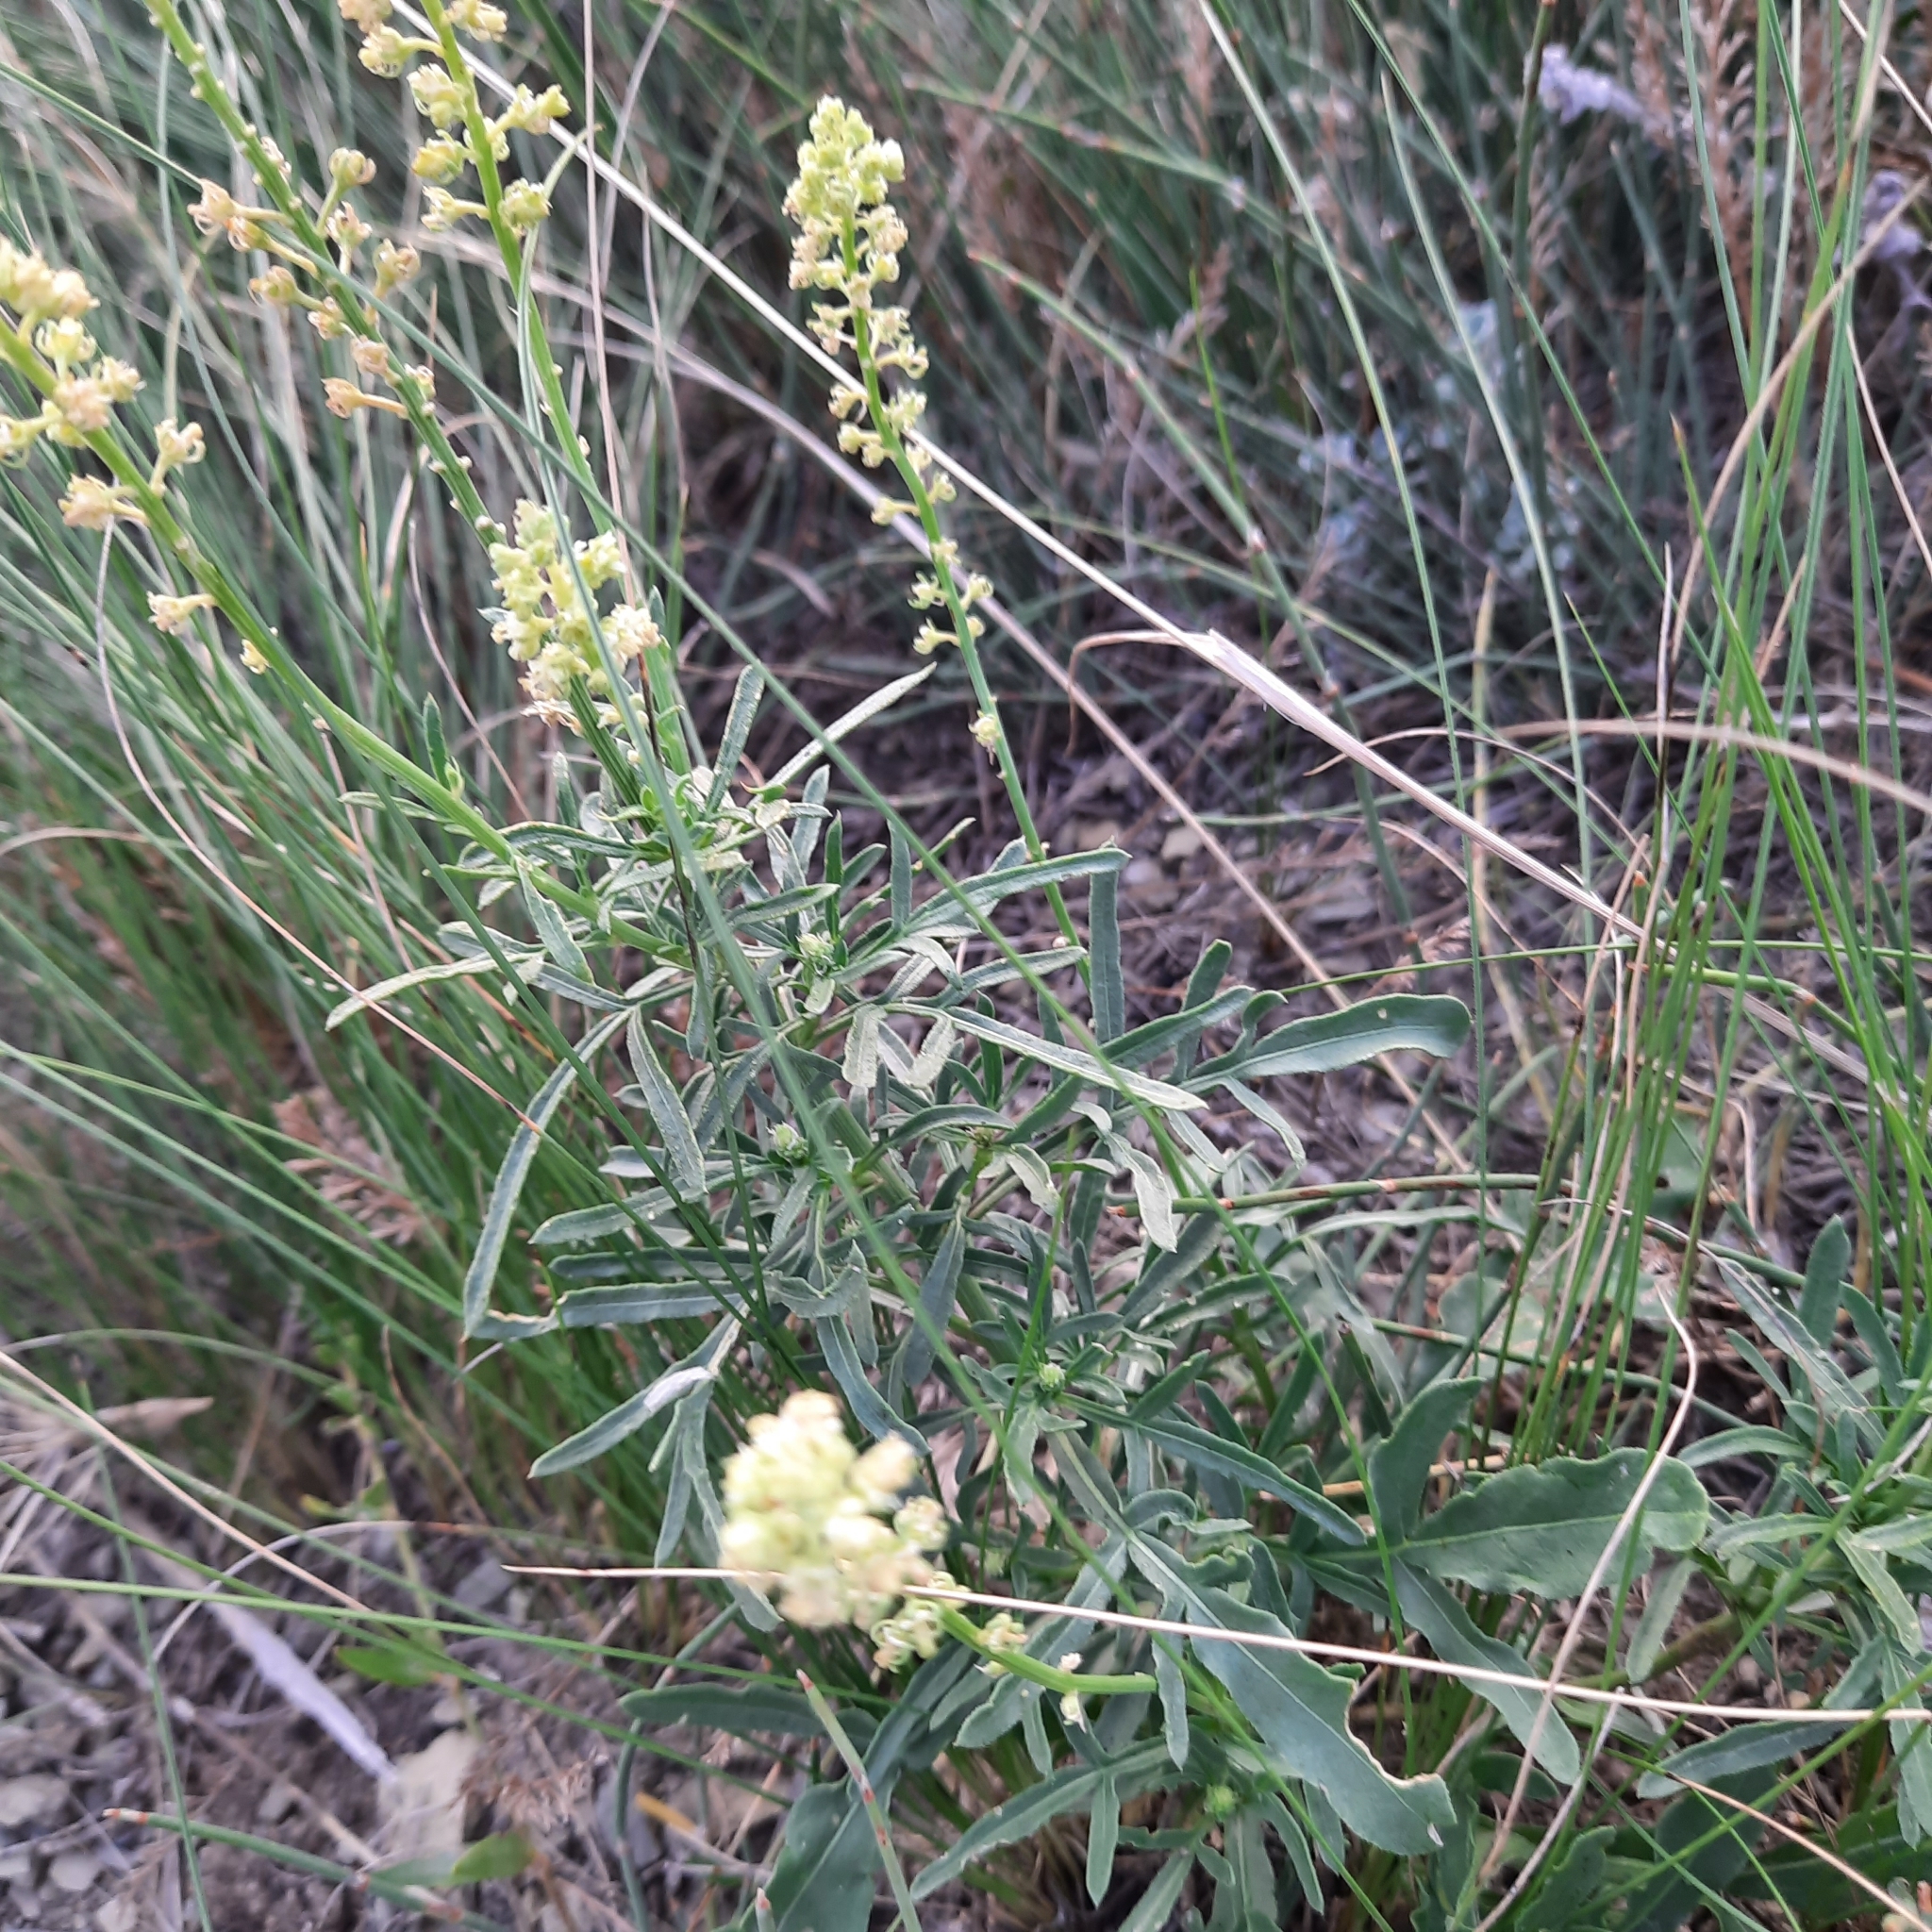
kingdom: Plantae
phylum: Tracheophyta
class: Magnoliopsida
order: Brassicales
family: Resedaceae
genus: Reseda
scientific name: Reseda lutea
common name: Wild mignonette
